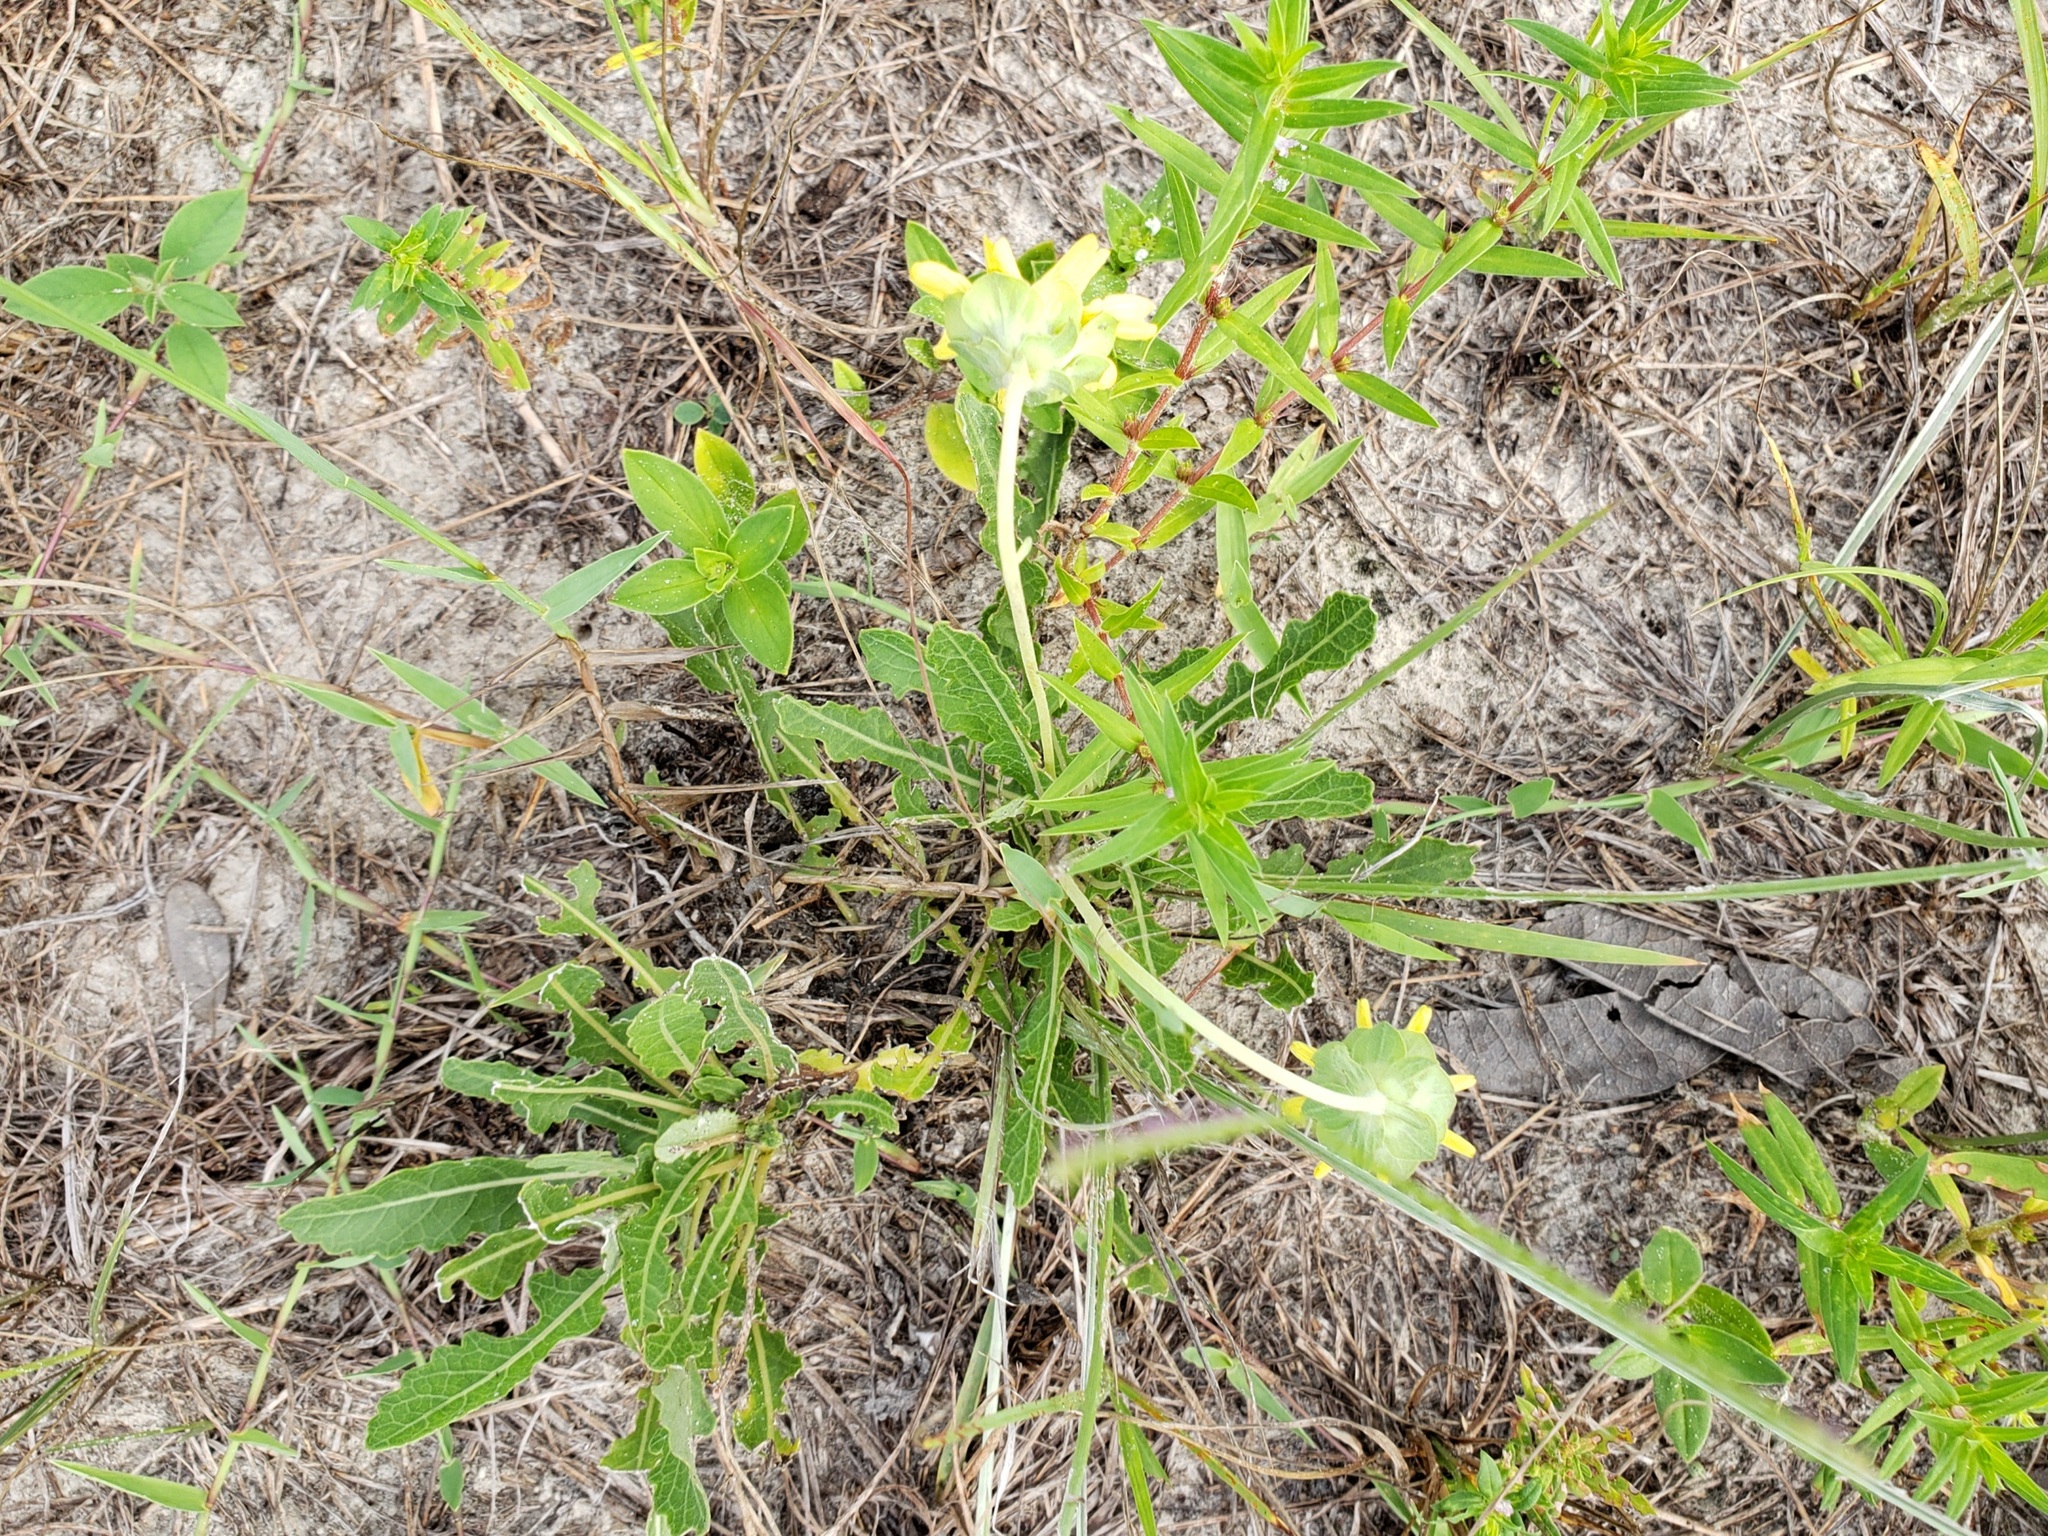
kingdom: Plantae
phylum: Tracheophyta
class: Magnoliopsida
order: Asterales
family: Asteraceae
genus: Berlandiera
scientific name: Berlandiera subacaulis
